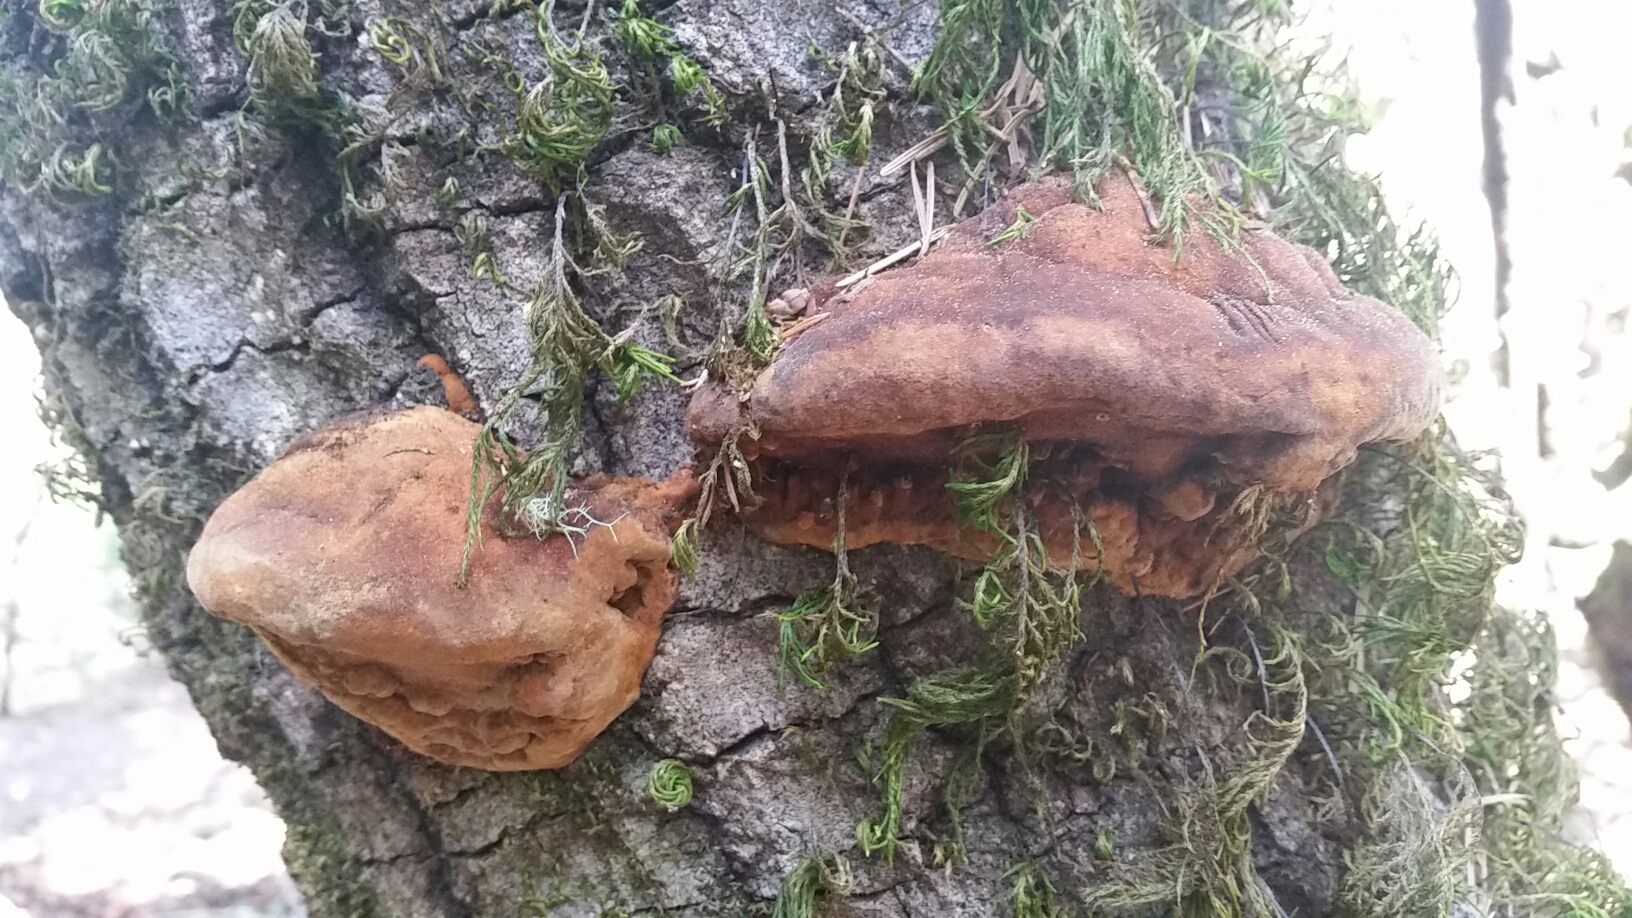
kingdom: Fungi
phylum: Basidiomycota
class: Agaricomycetes
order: Hymenochaetales
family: Hymenochaetaceae
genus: Phellinus
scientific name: Phellinus gilvus
